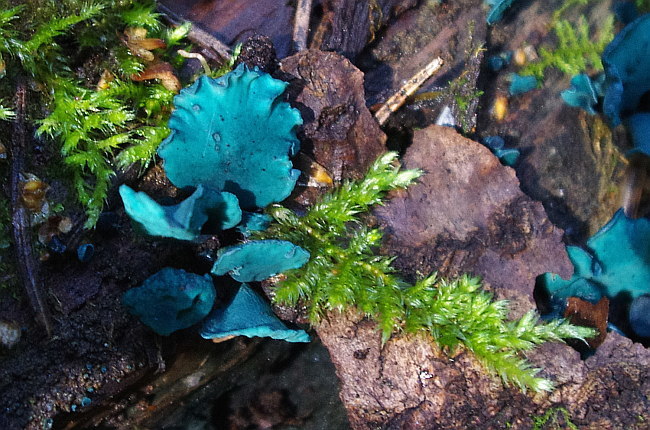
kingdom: Fungi
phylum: Ascomycota
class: Leotiomycetes
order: Helotiales
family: Chlorociboriaceae
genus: Chlorociboria
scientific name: Chlorociboria aeruginascens
